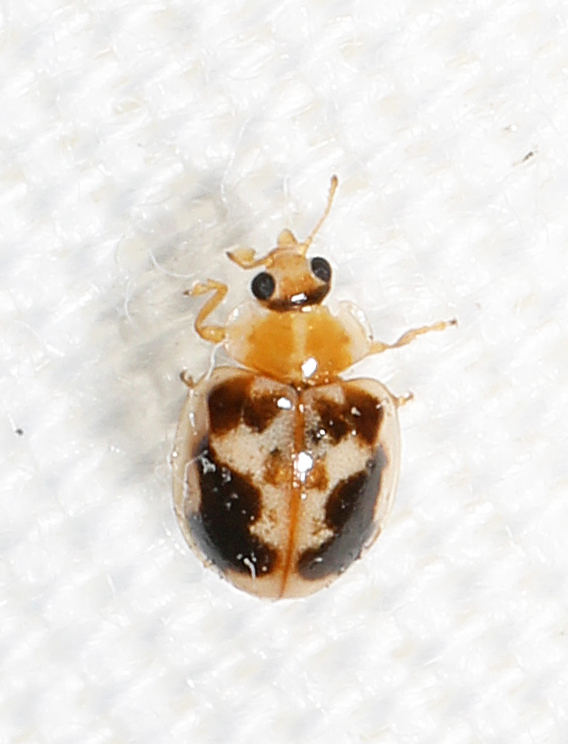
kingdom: Animalia
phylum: Arthropoda
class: Insecta
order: Coleoptera
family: Coccinellidae
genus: Psyllobora
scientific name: Psyllobora renifer
